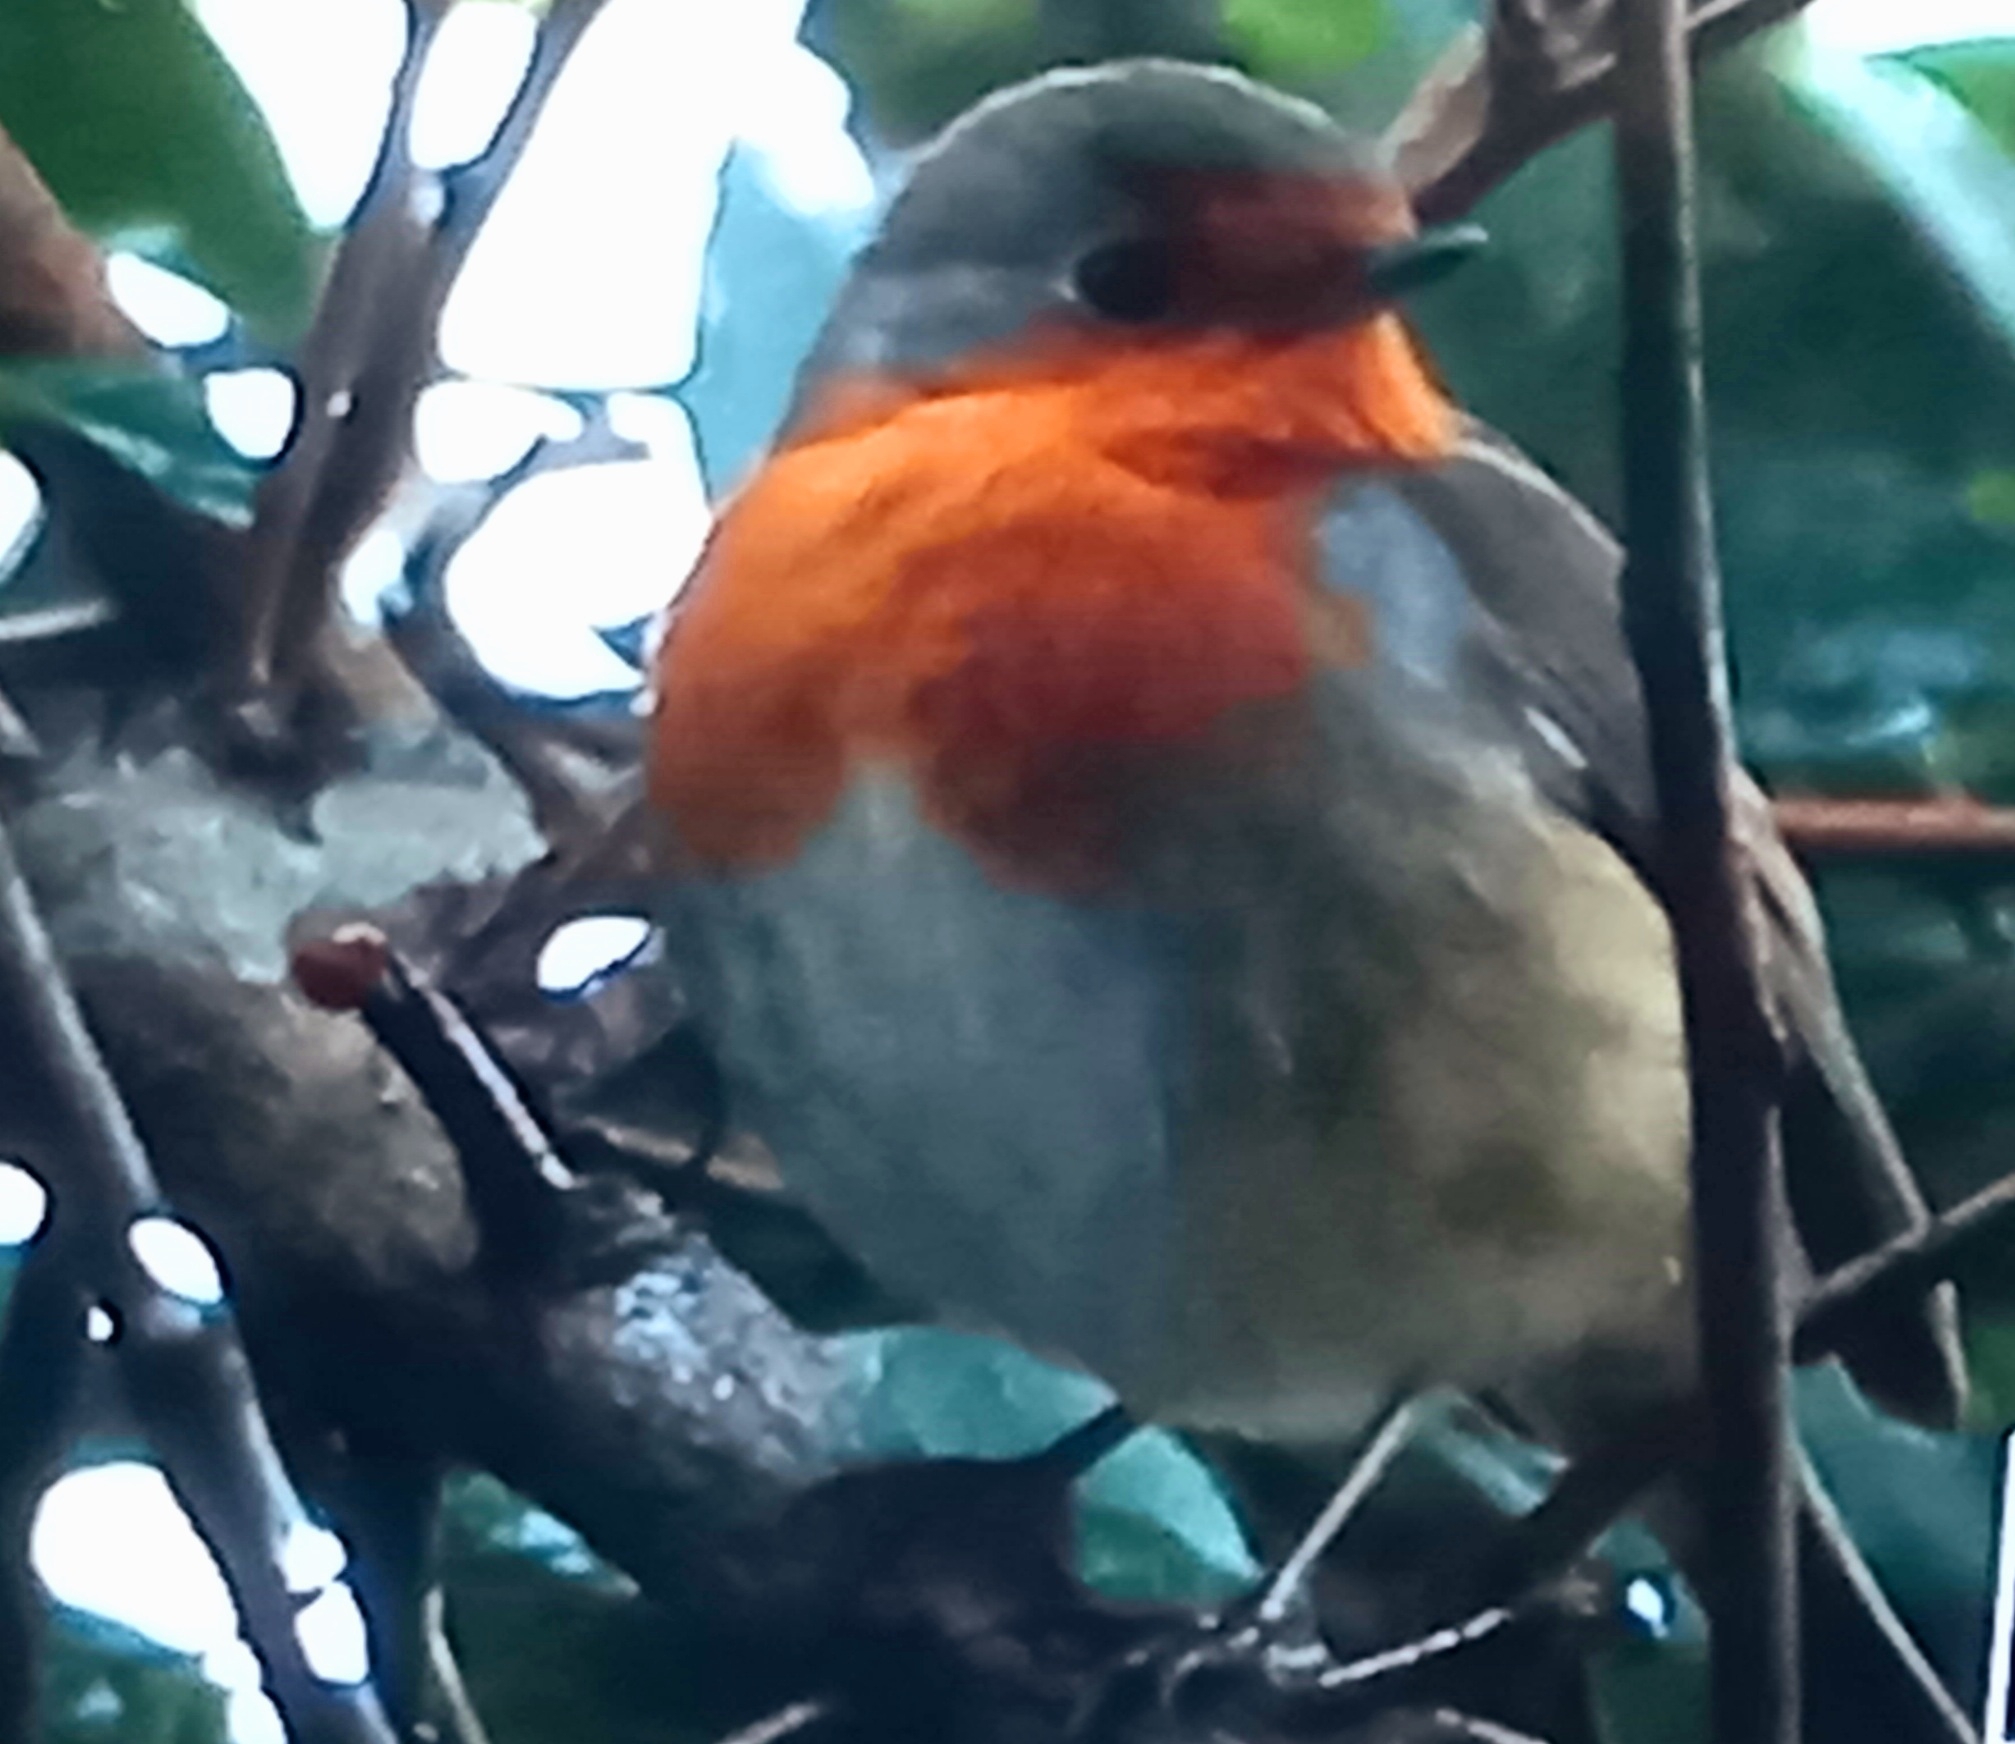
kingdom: Animalia
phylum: Chordata
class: Aves
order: Passeriformes
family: Muscicapidae
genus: Erithacus
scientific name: Erithacus rubecula
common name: European robin
